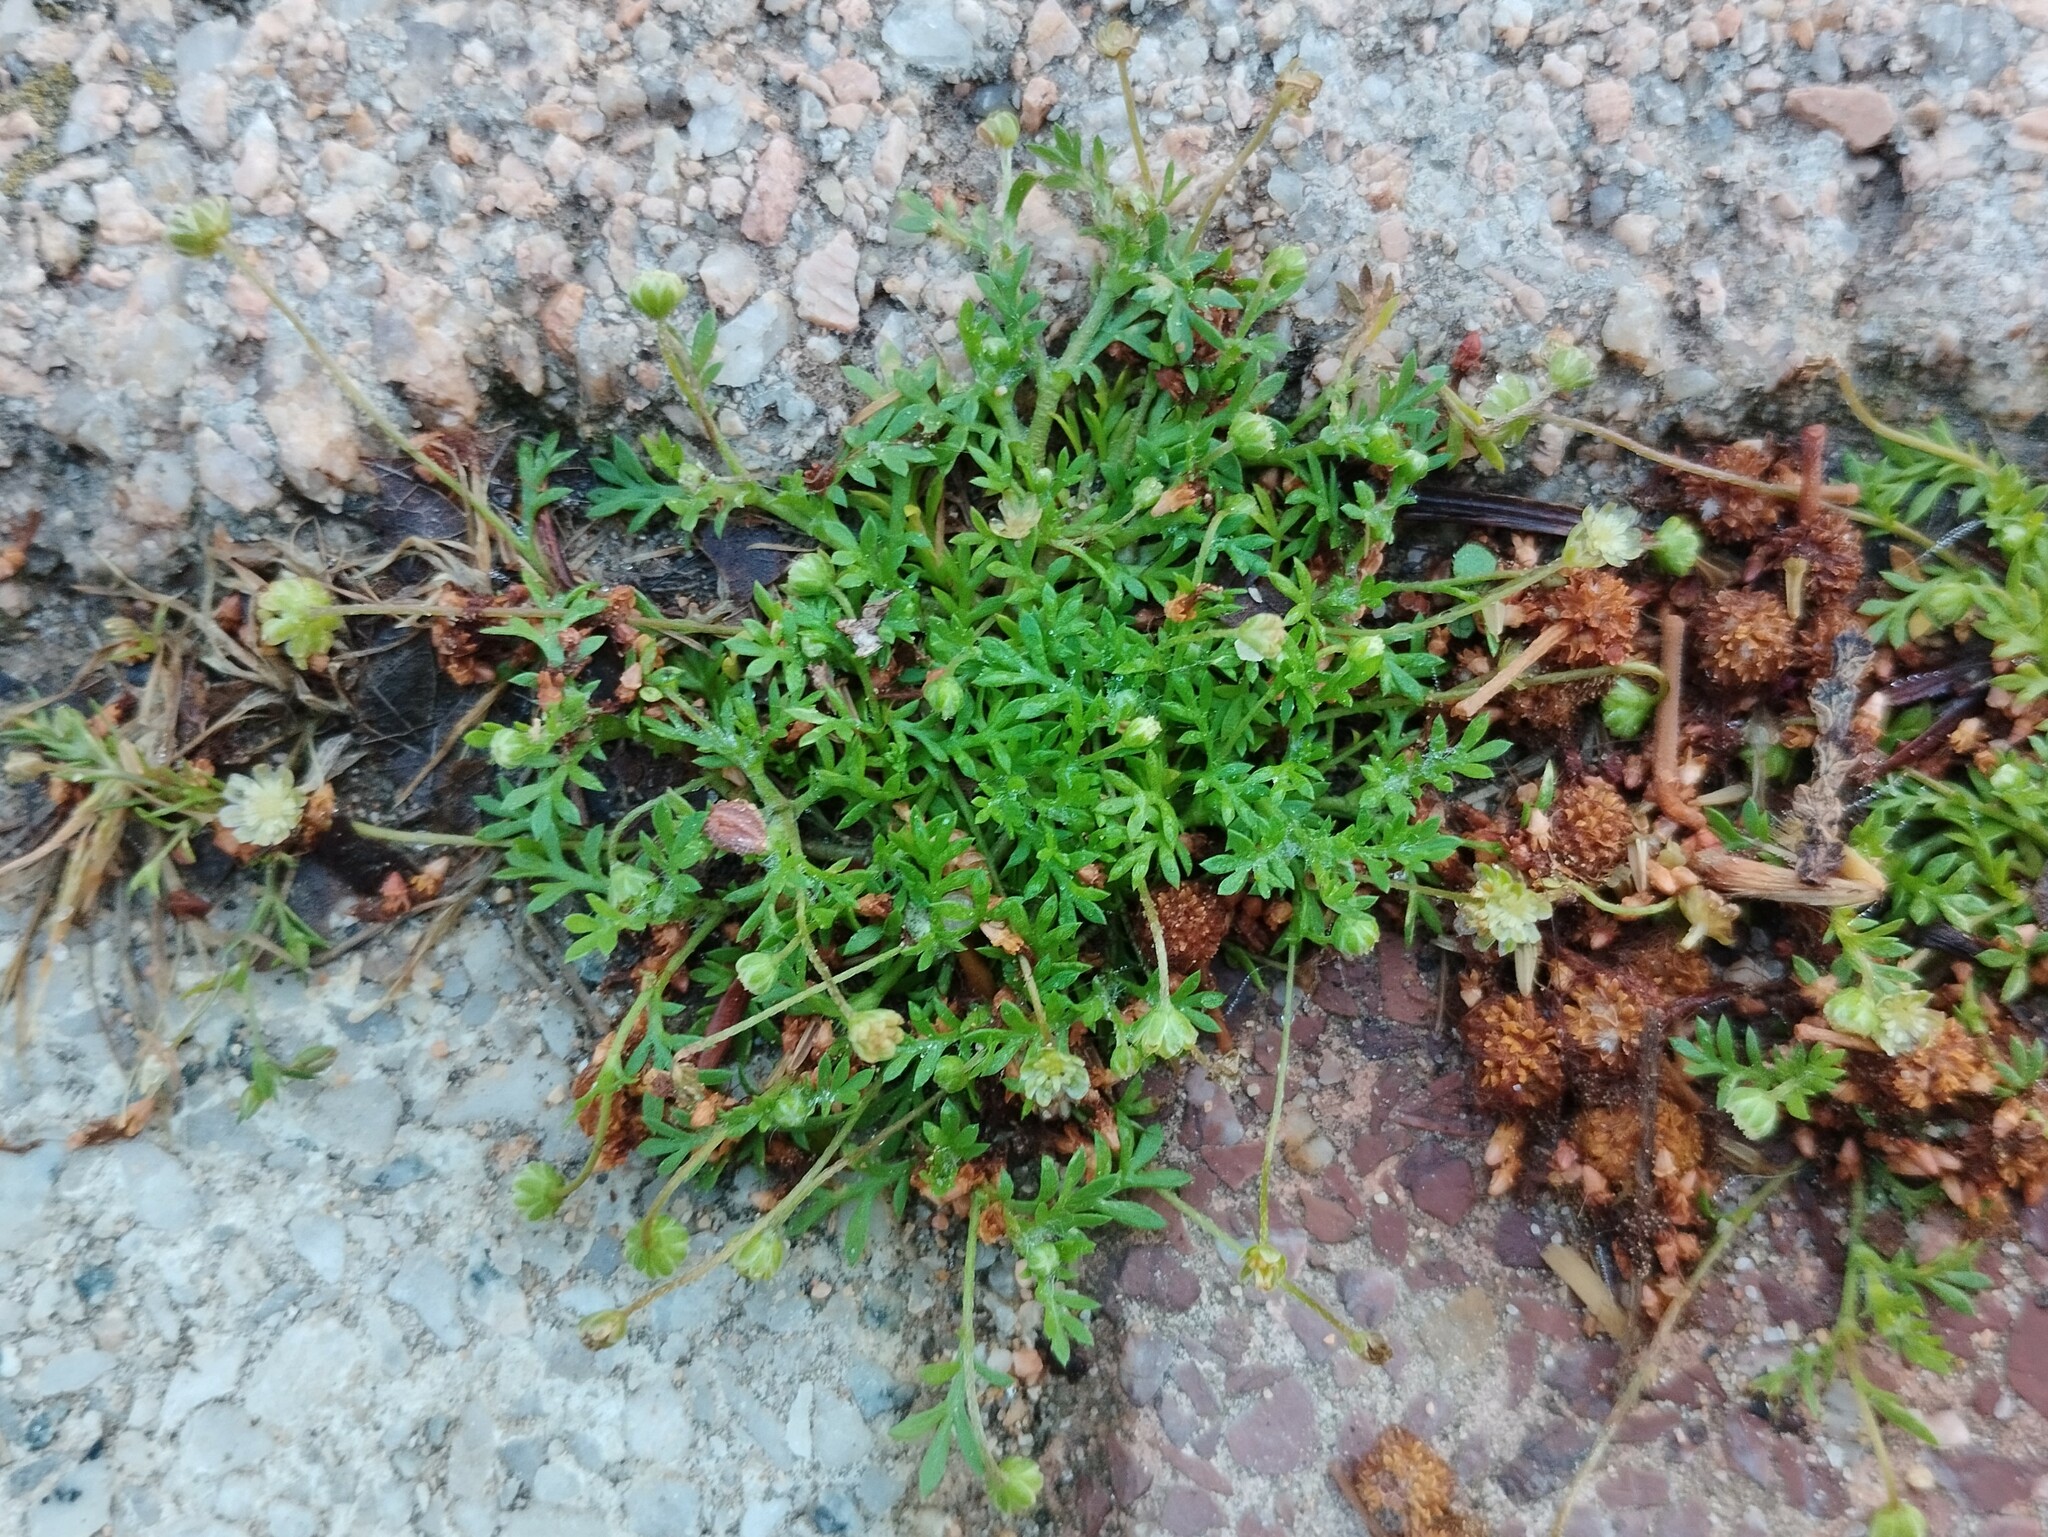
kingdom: Plantae
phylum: Tracheophyta
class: Magnoliopsida
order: Asterales
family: Asteraceae
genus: Cotula
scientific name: Cotula australis
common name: Australian waterbuttons
